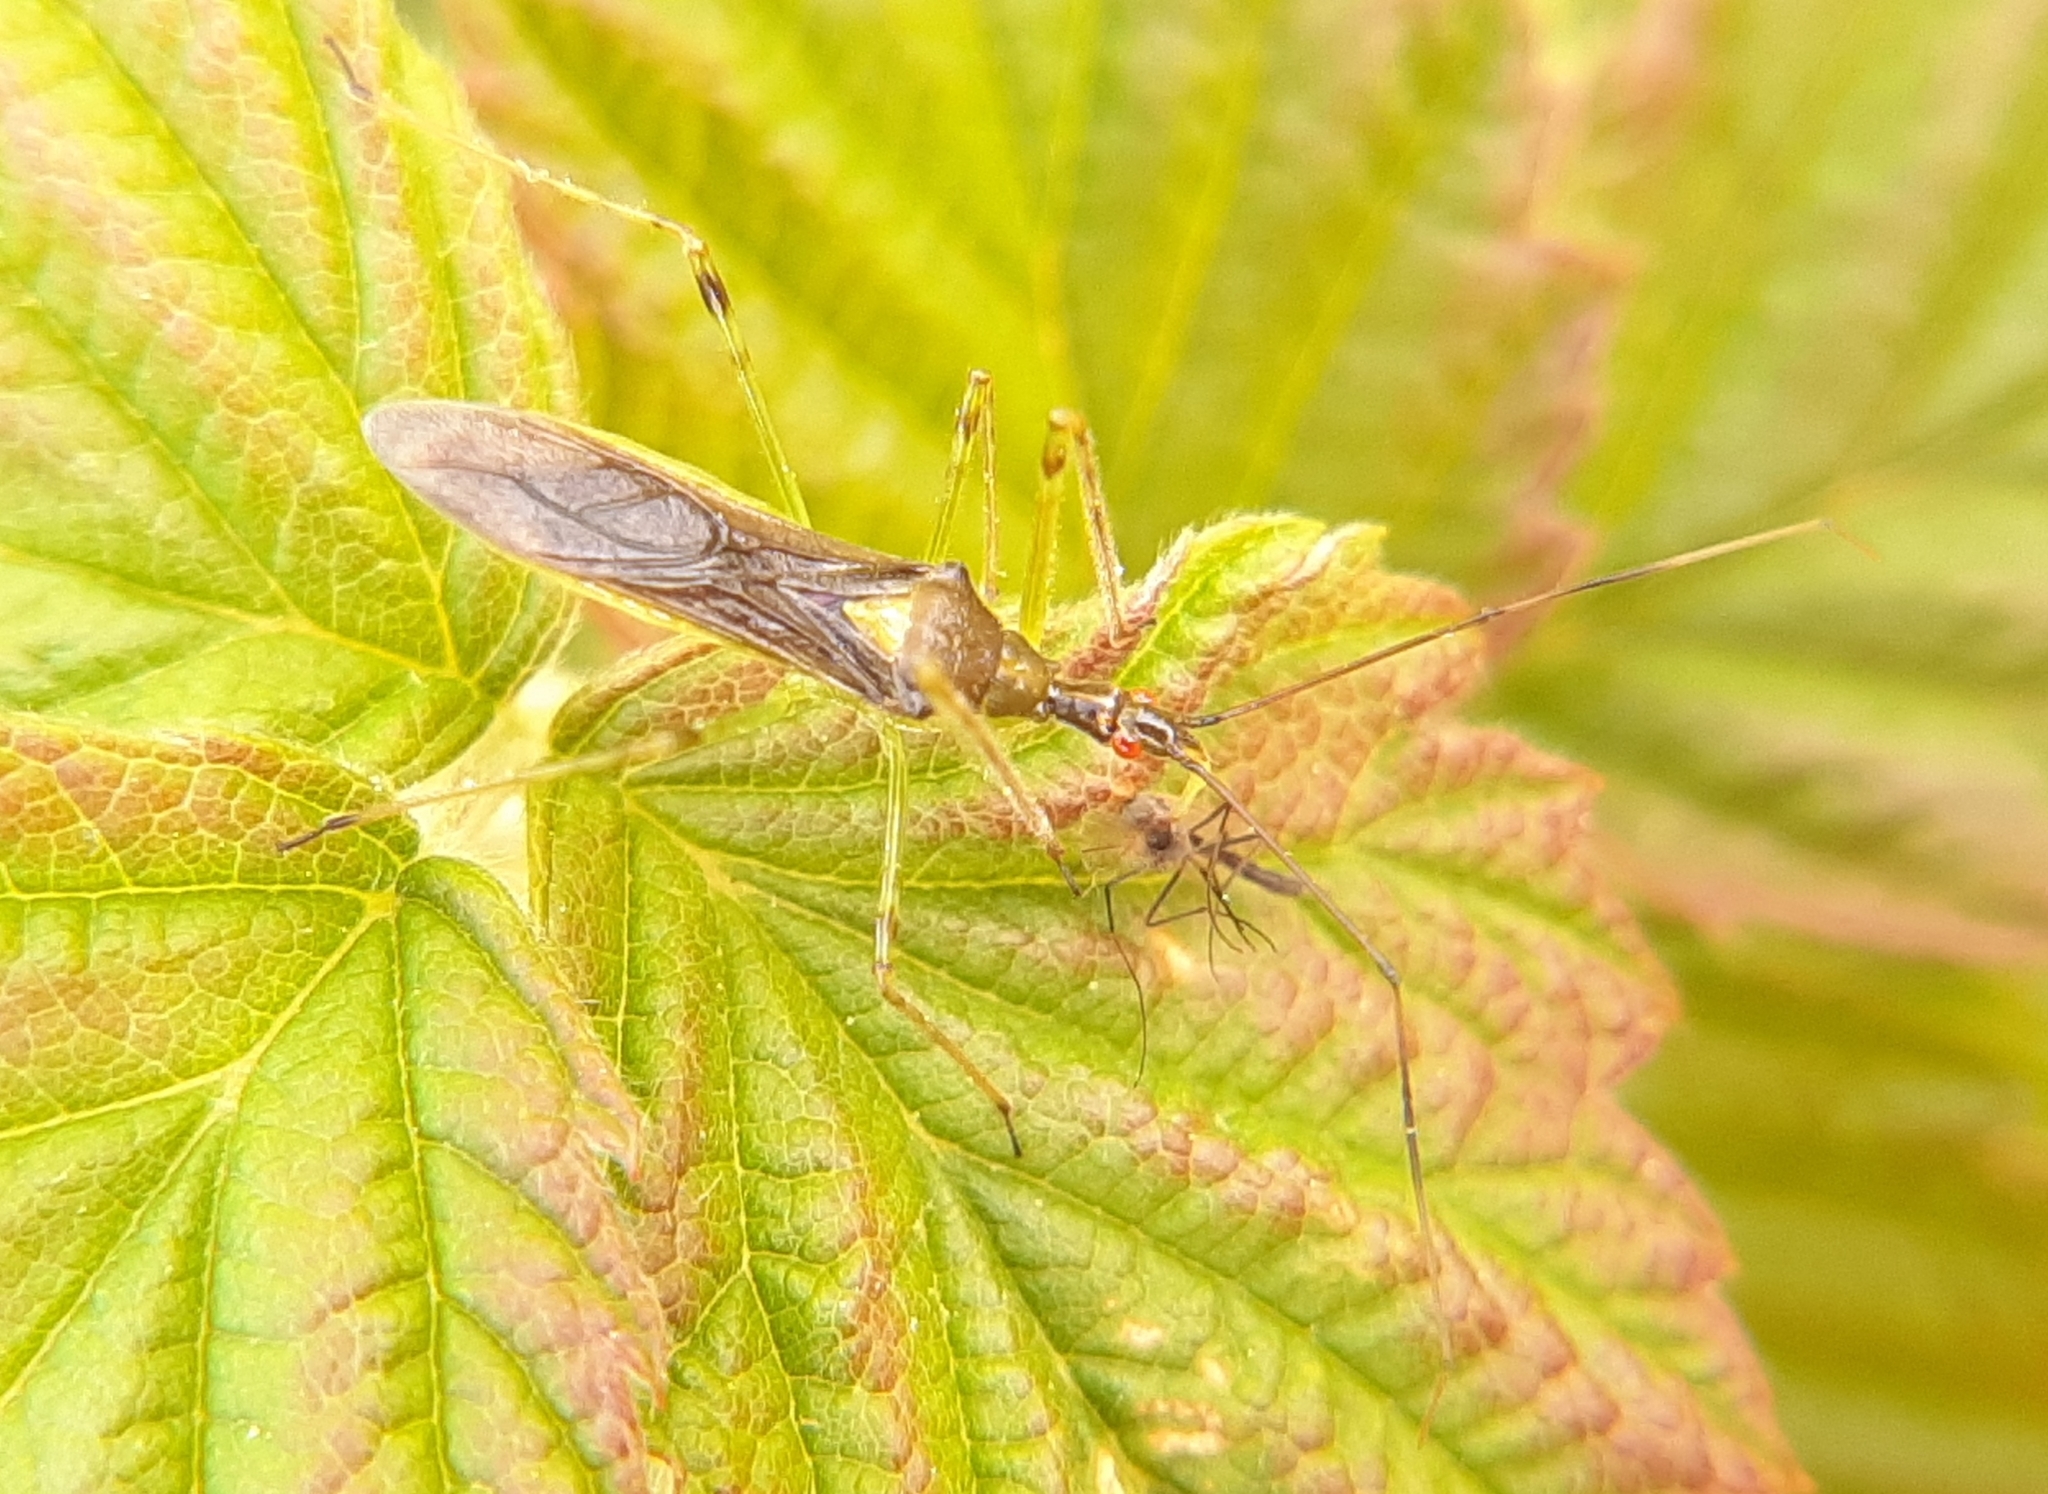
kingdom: Animalia
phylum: Arthropoda
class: Insecta
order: Hemiptera
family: Reduviidae
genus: Zelus
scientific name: Zelus luridus
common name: Pale green assassin bug
